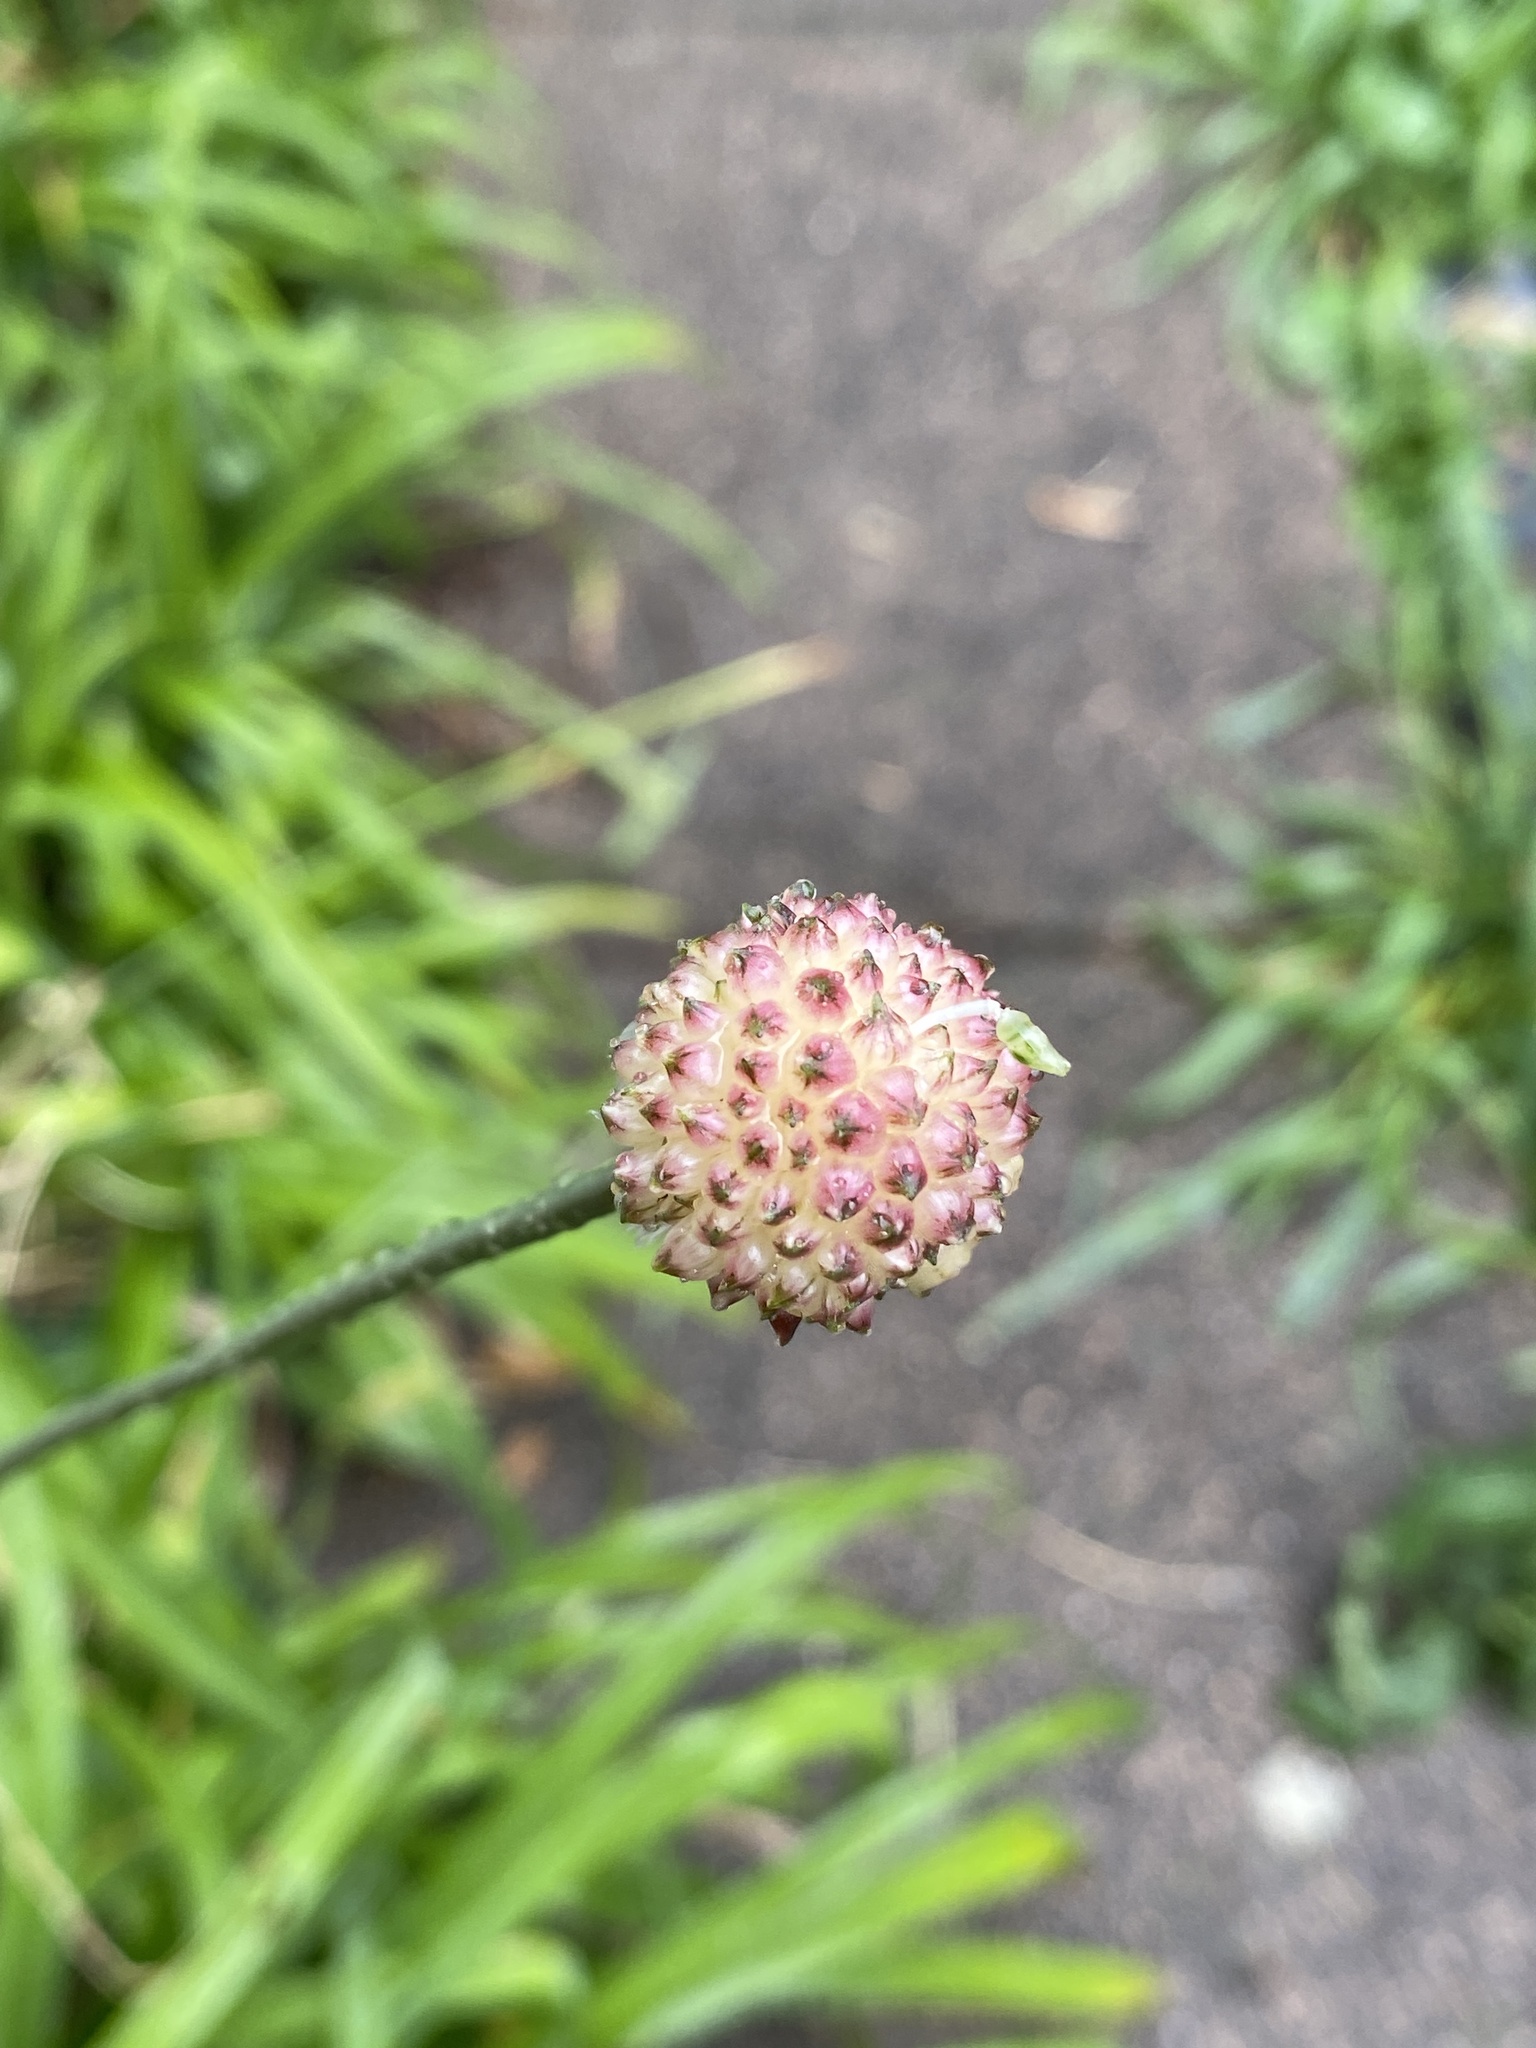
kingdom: Plantae
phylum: Tracheophyta
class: Liliopsida
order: Asparagales
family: Amaryllidaceae
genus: Allium
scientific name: Allium vineale
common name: Crow garlic
